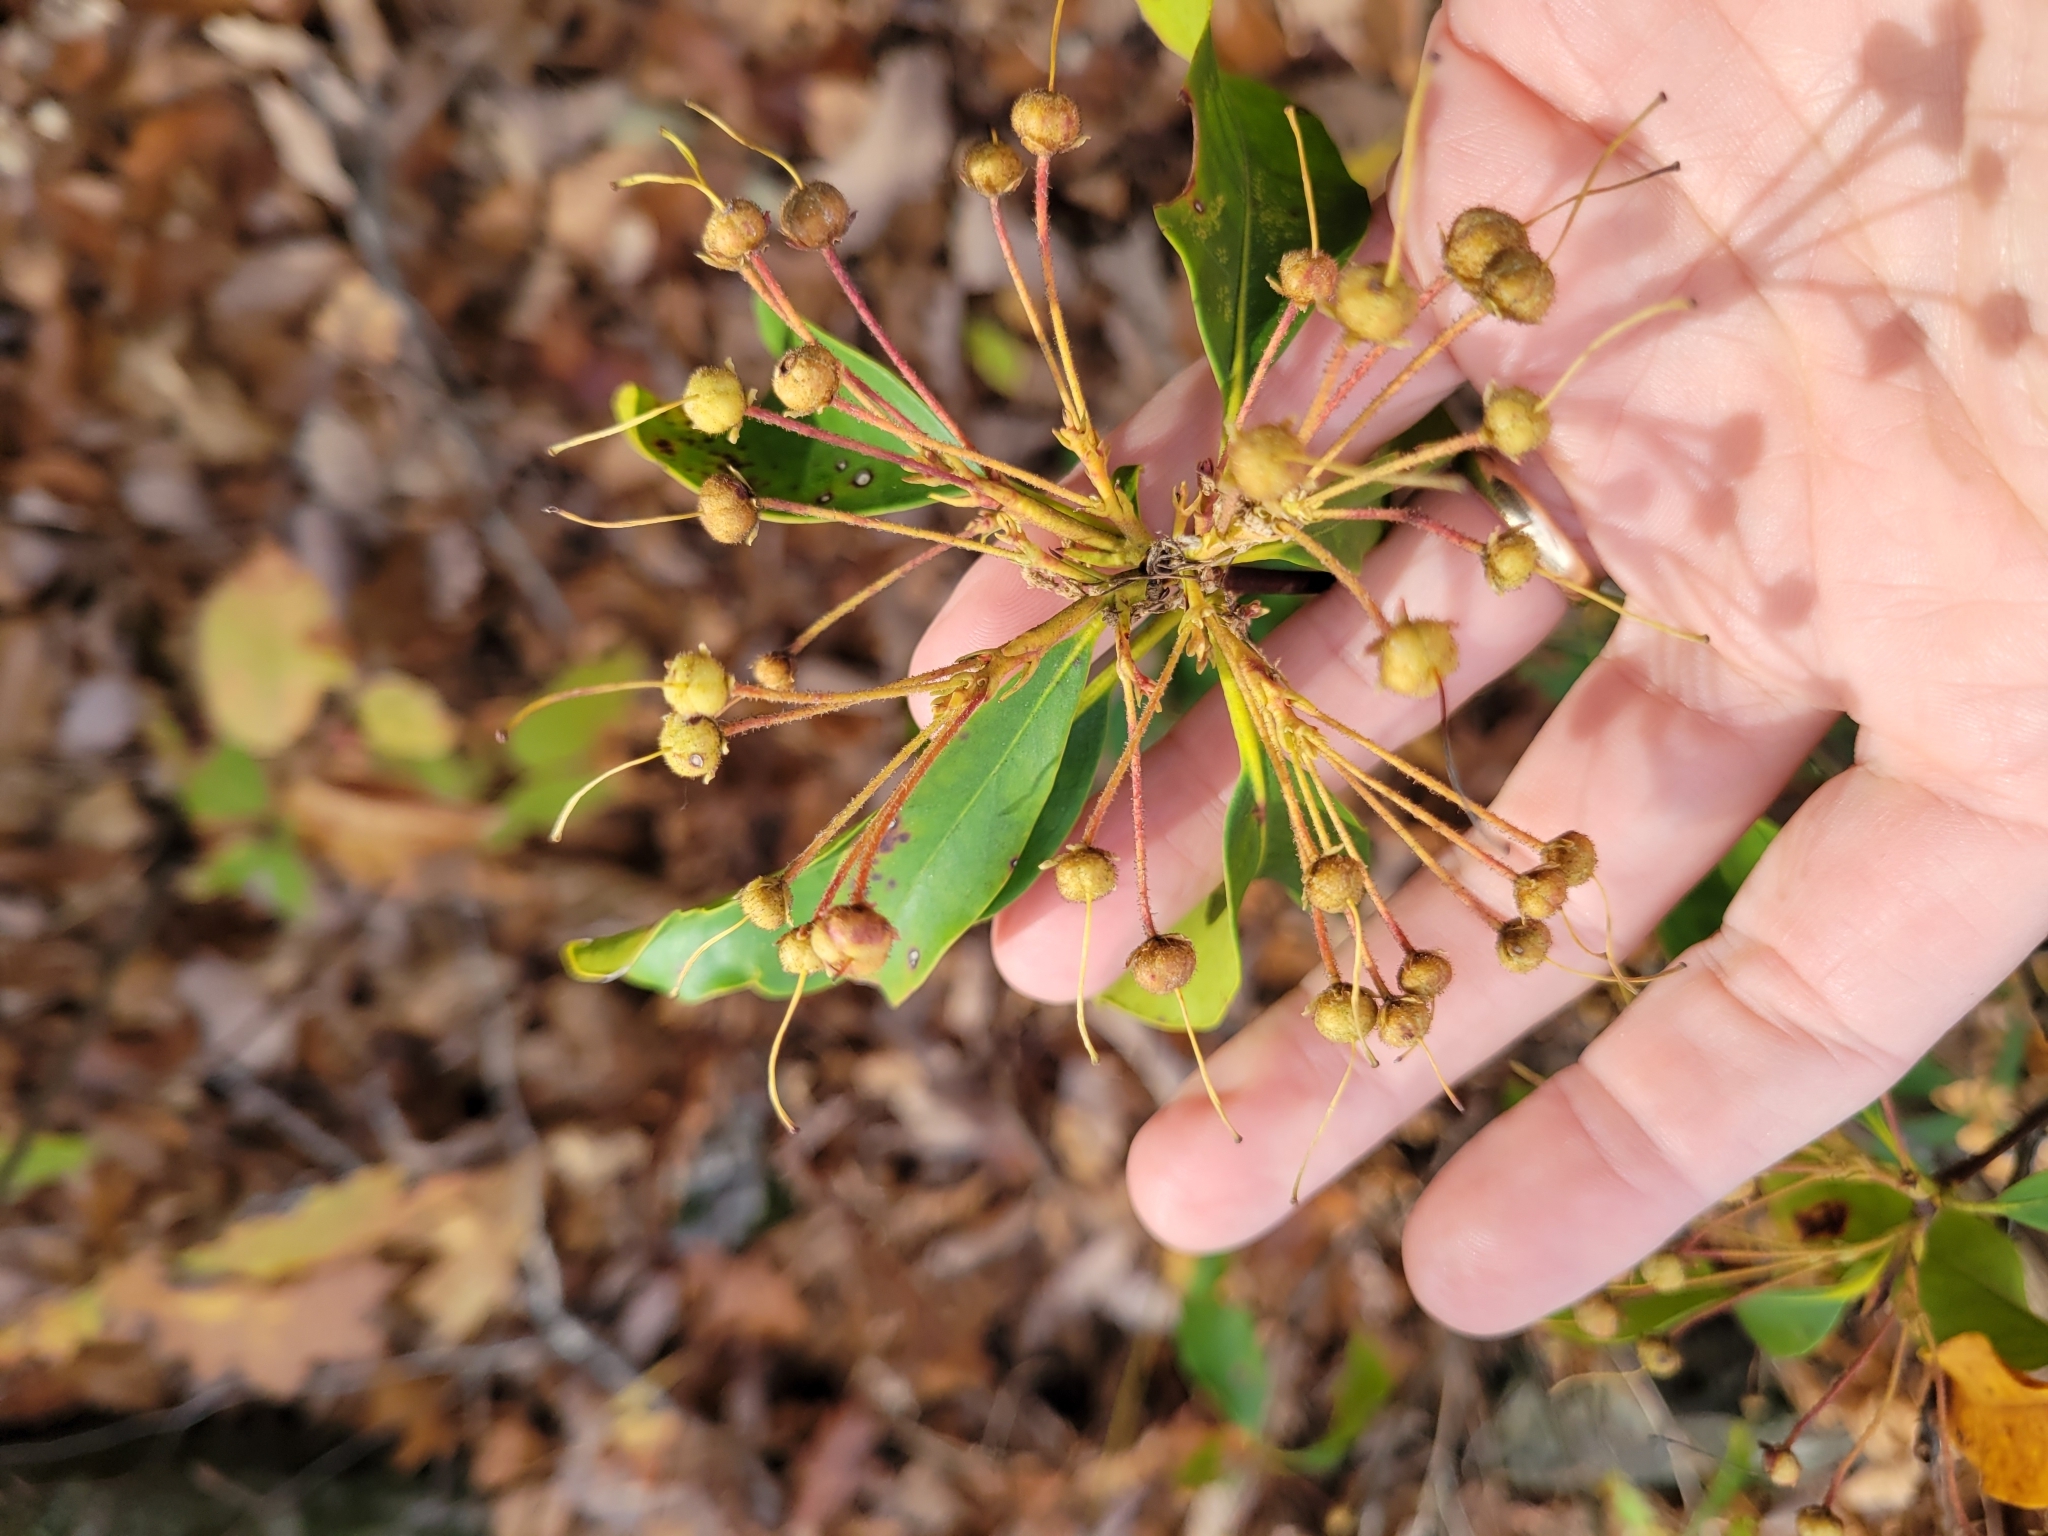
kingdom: Plantae
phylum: Tracheophyta
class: Magnoliopsida
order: Ericales
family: Ericaceae
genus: Kalmia
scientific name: Kalmia latifolia
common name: Mountain-laurel
